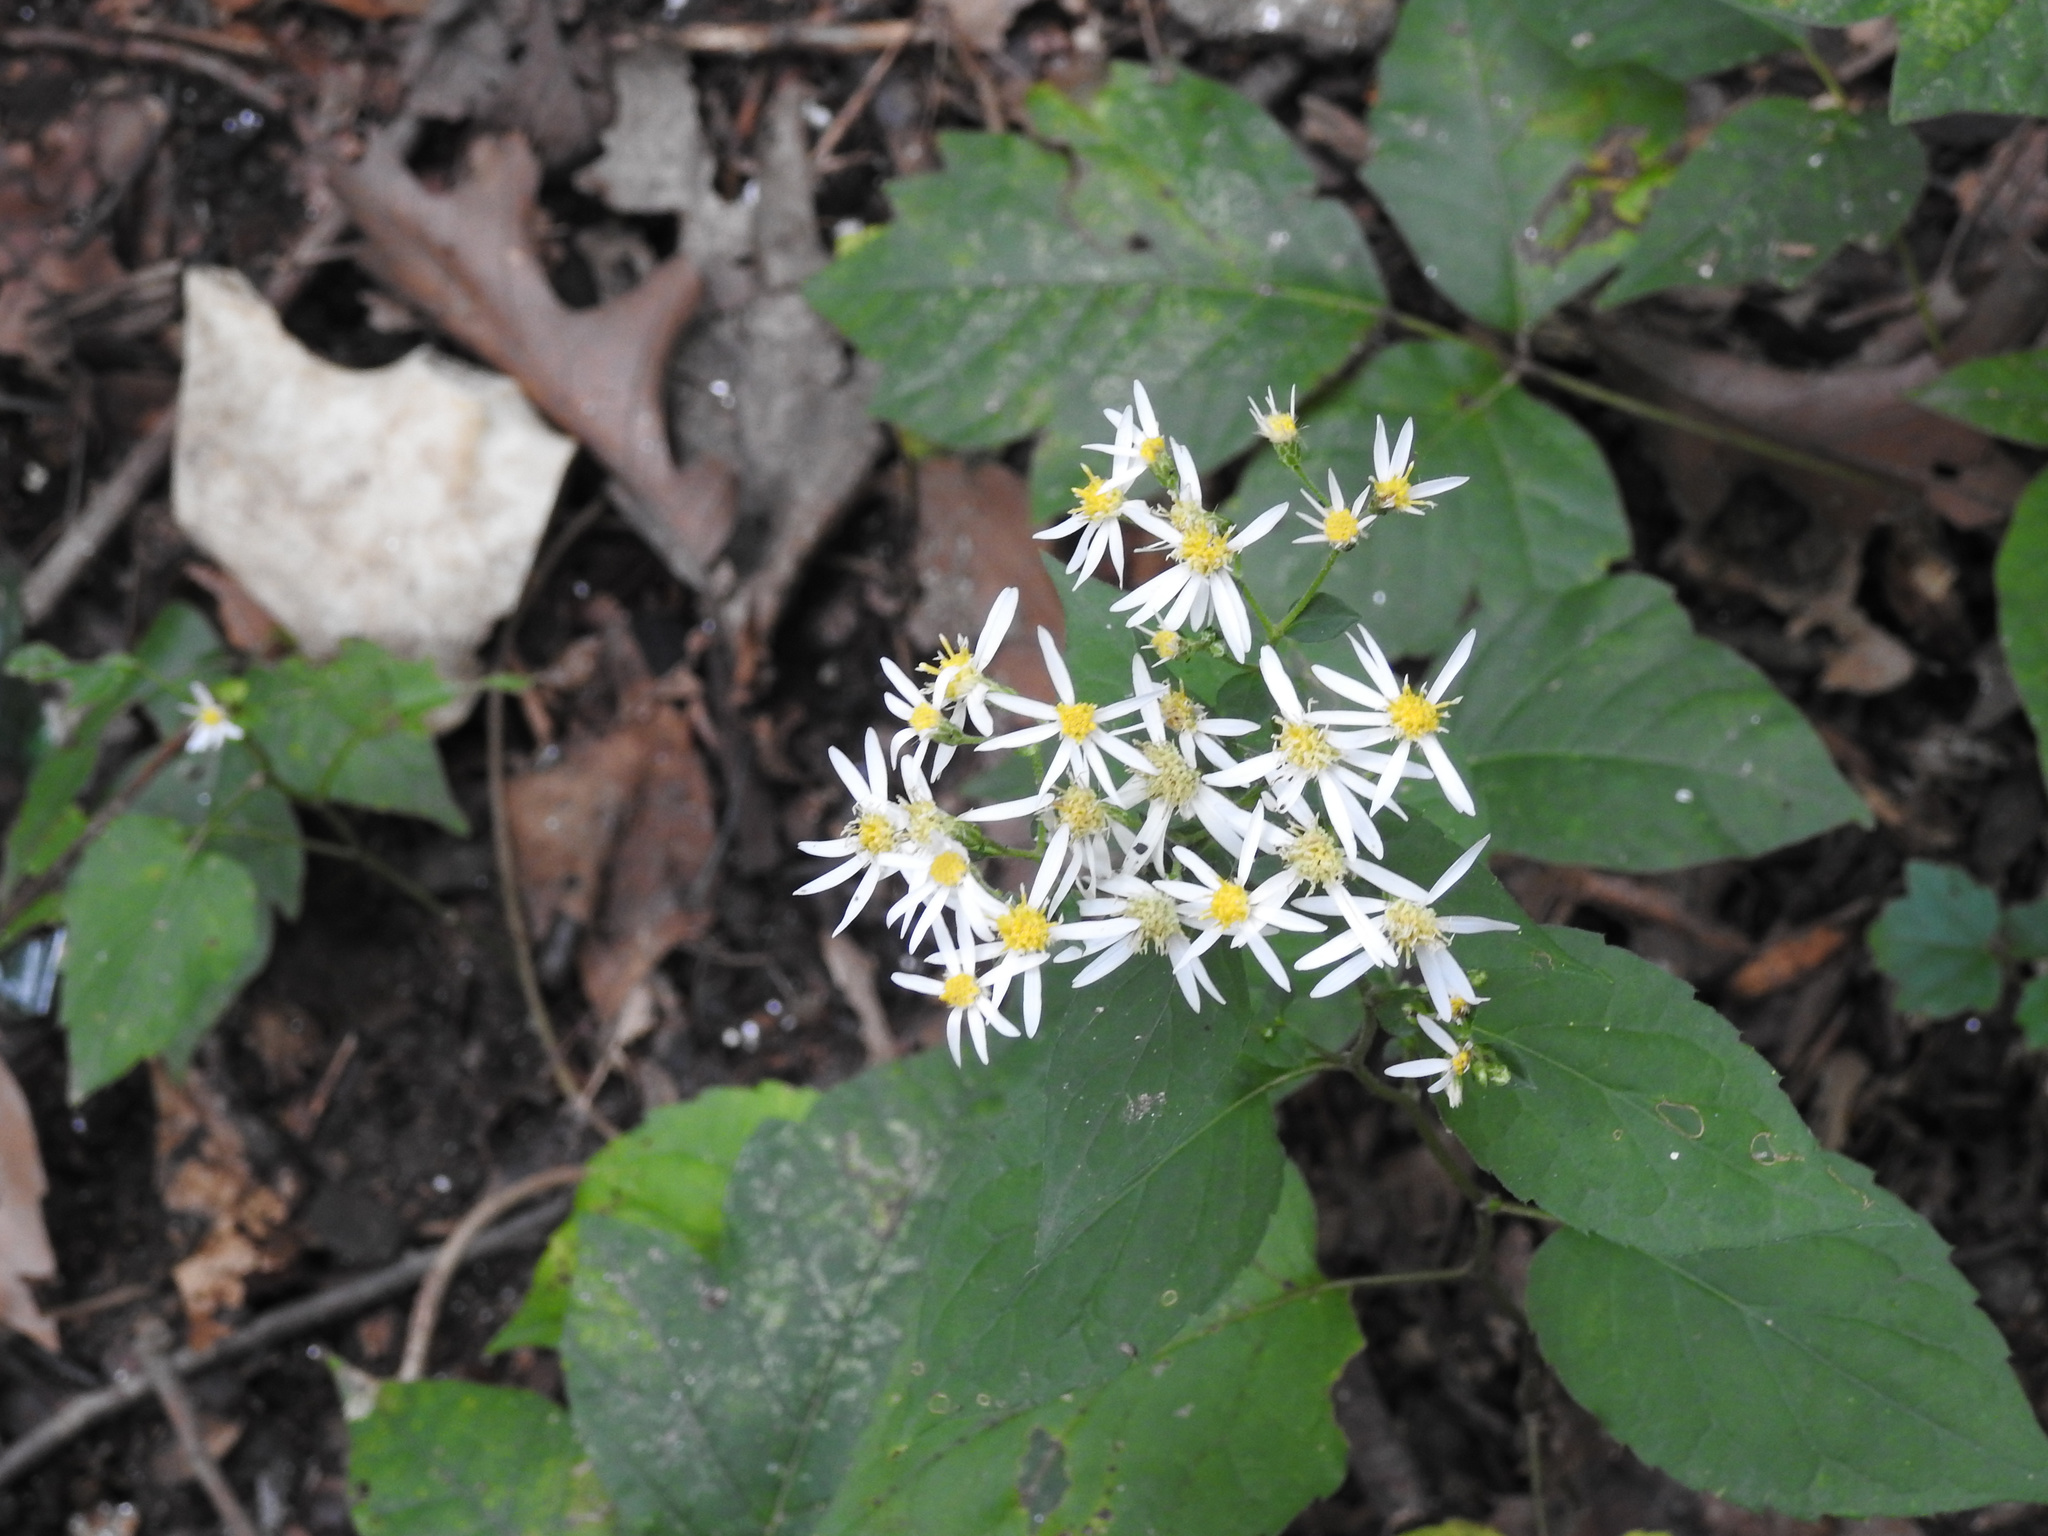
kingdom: Plantae
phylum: Tracheophyta
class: Magnoliopsida
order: Asterales
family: Asteraceae
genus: Eurybia
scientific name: Eurybia divaricata
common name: White wood aster
